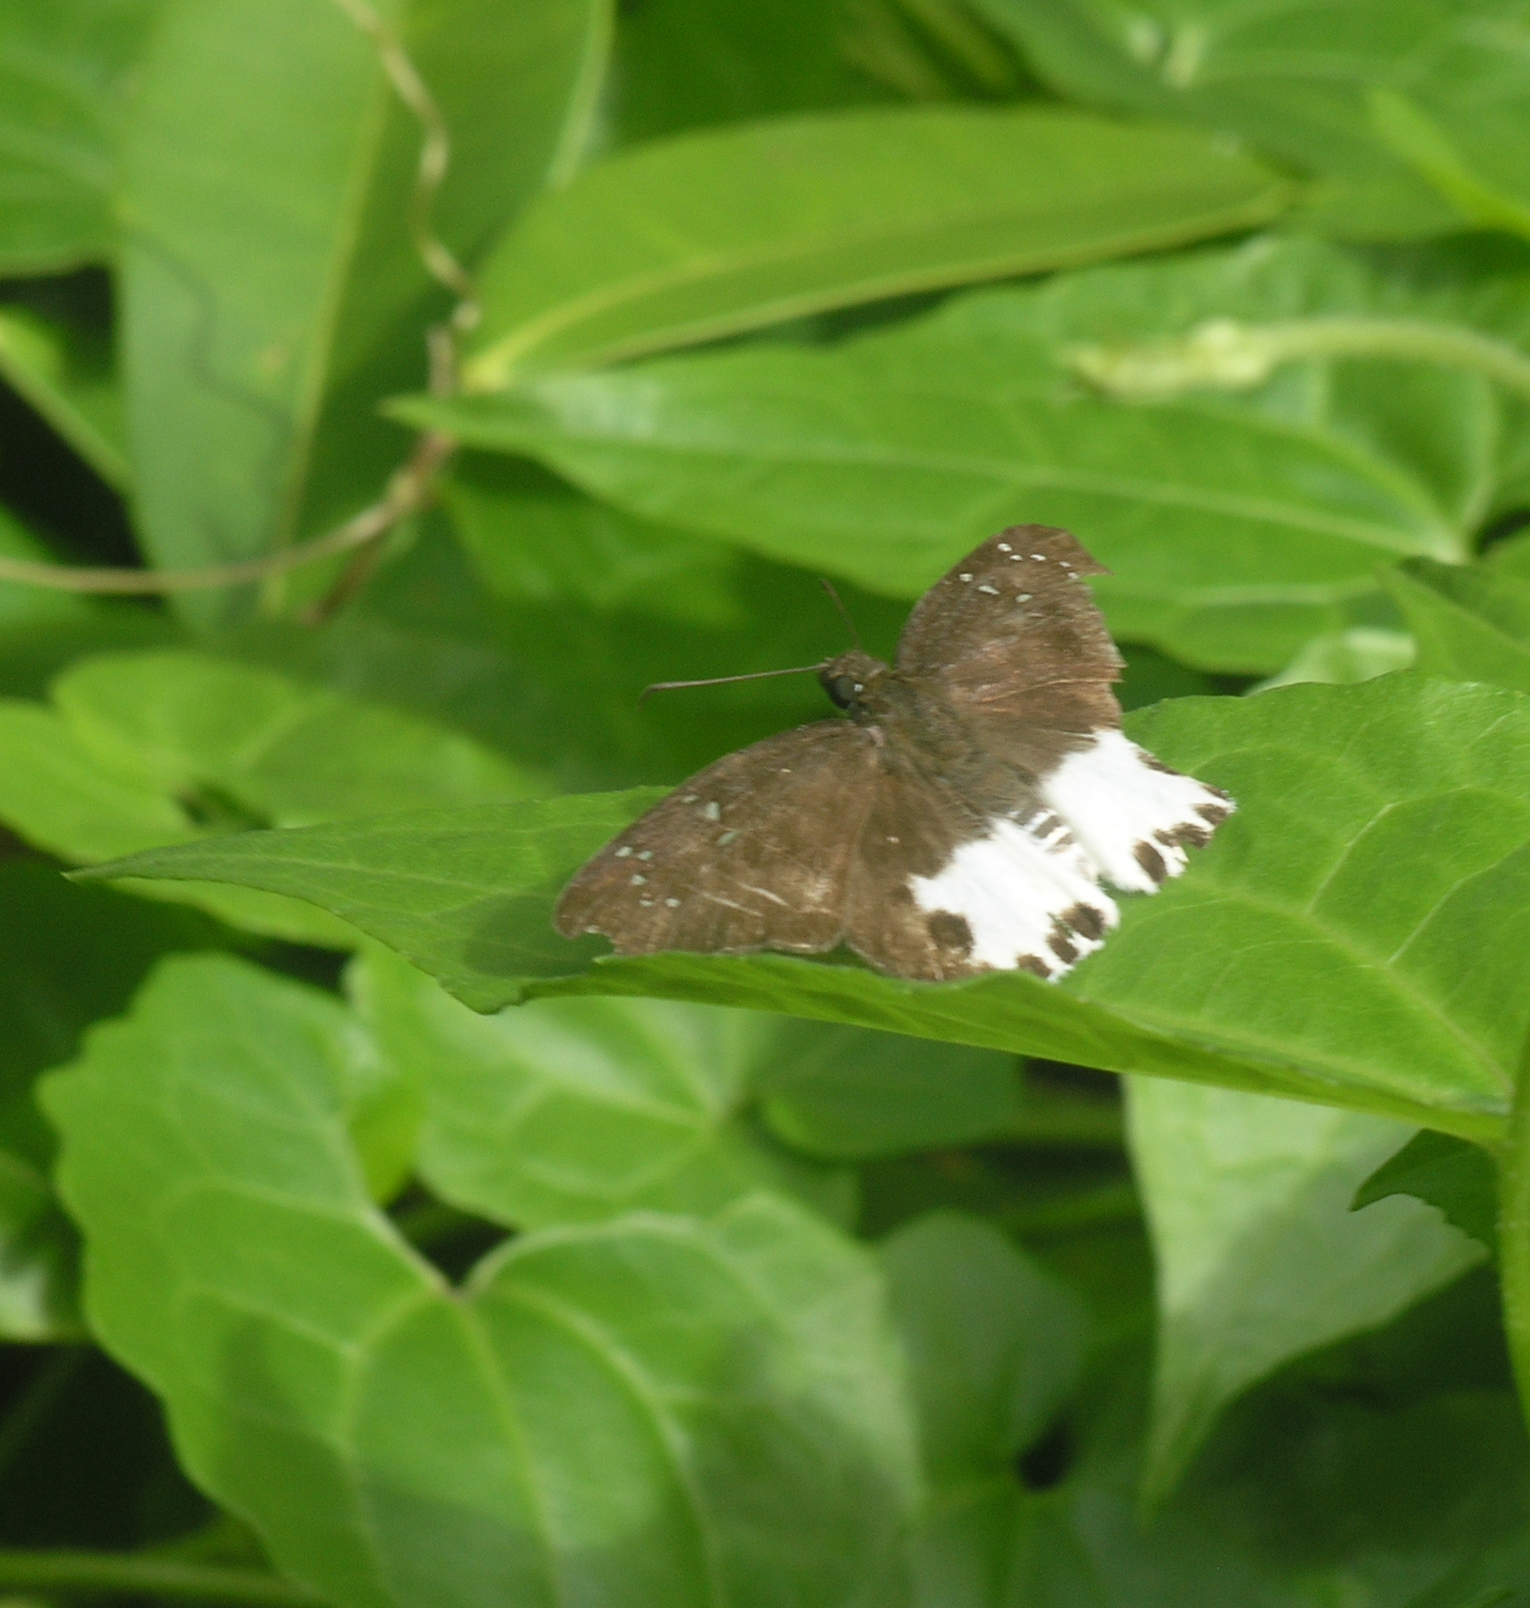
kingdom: Animalia
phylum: Arthropoda
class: Insecta
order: Lepidoptera
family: Hesperiidae
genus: Tagiades
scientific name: Tagiades litigiosa
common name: Water snow flat
